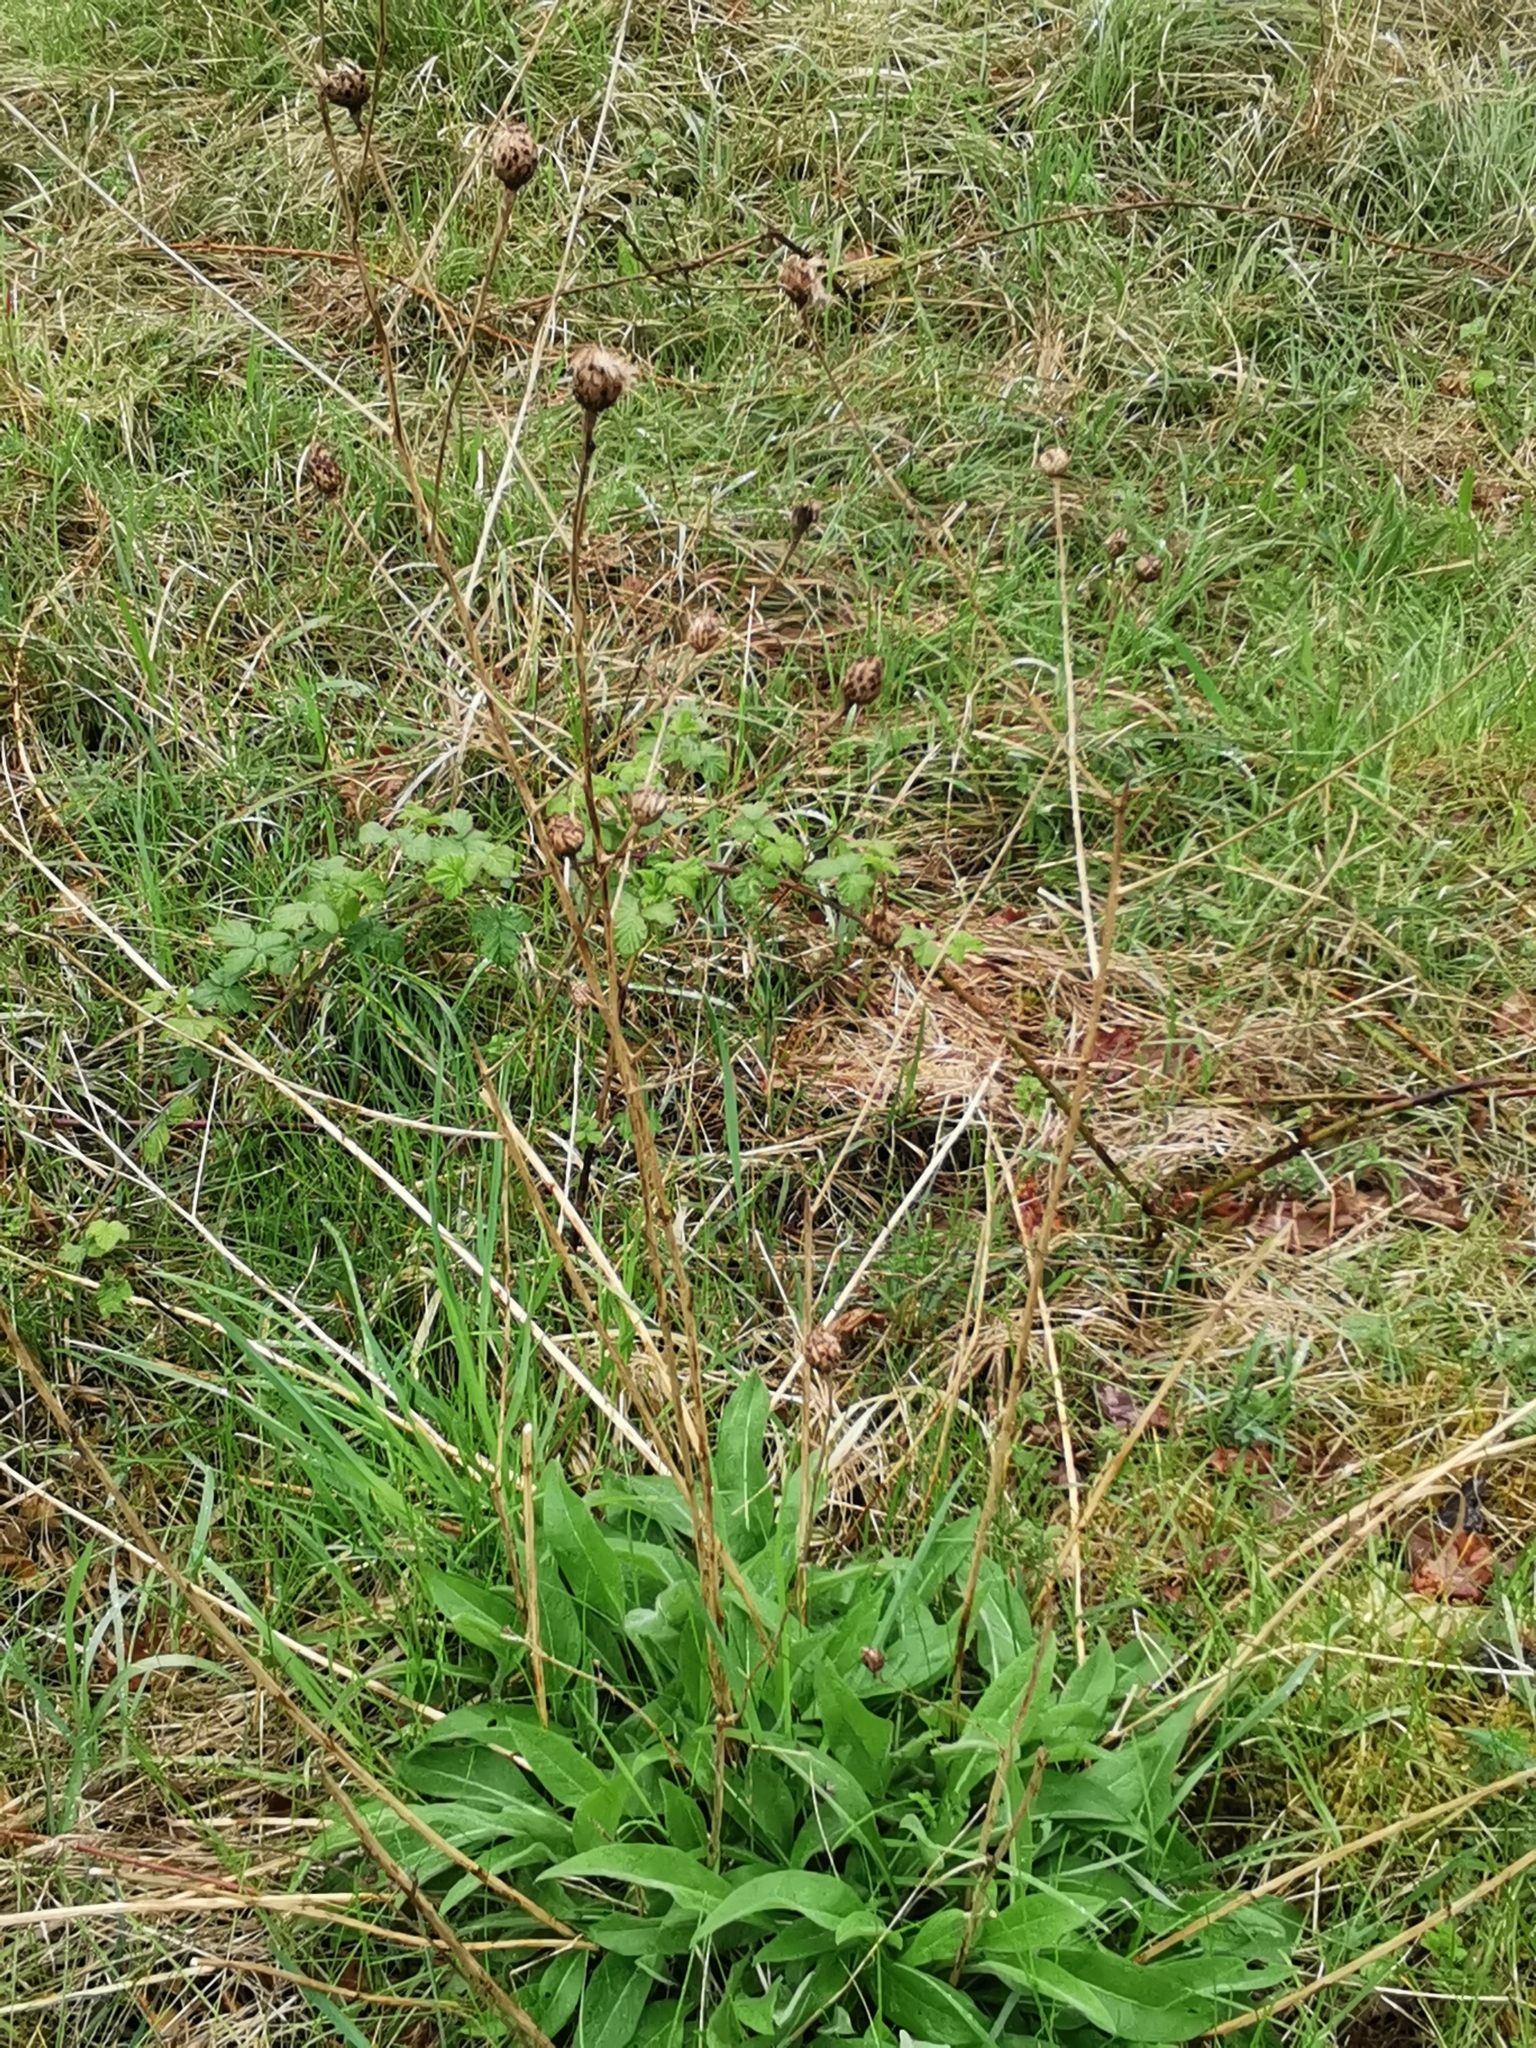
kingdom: Plantae
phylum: Tracheophyta
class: Magnoliopsida
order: Asterales
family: Asteraceae
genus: Centaurea
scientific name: Centaurea nigra
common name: Lesser knapweed
